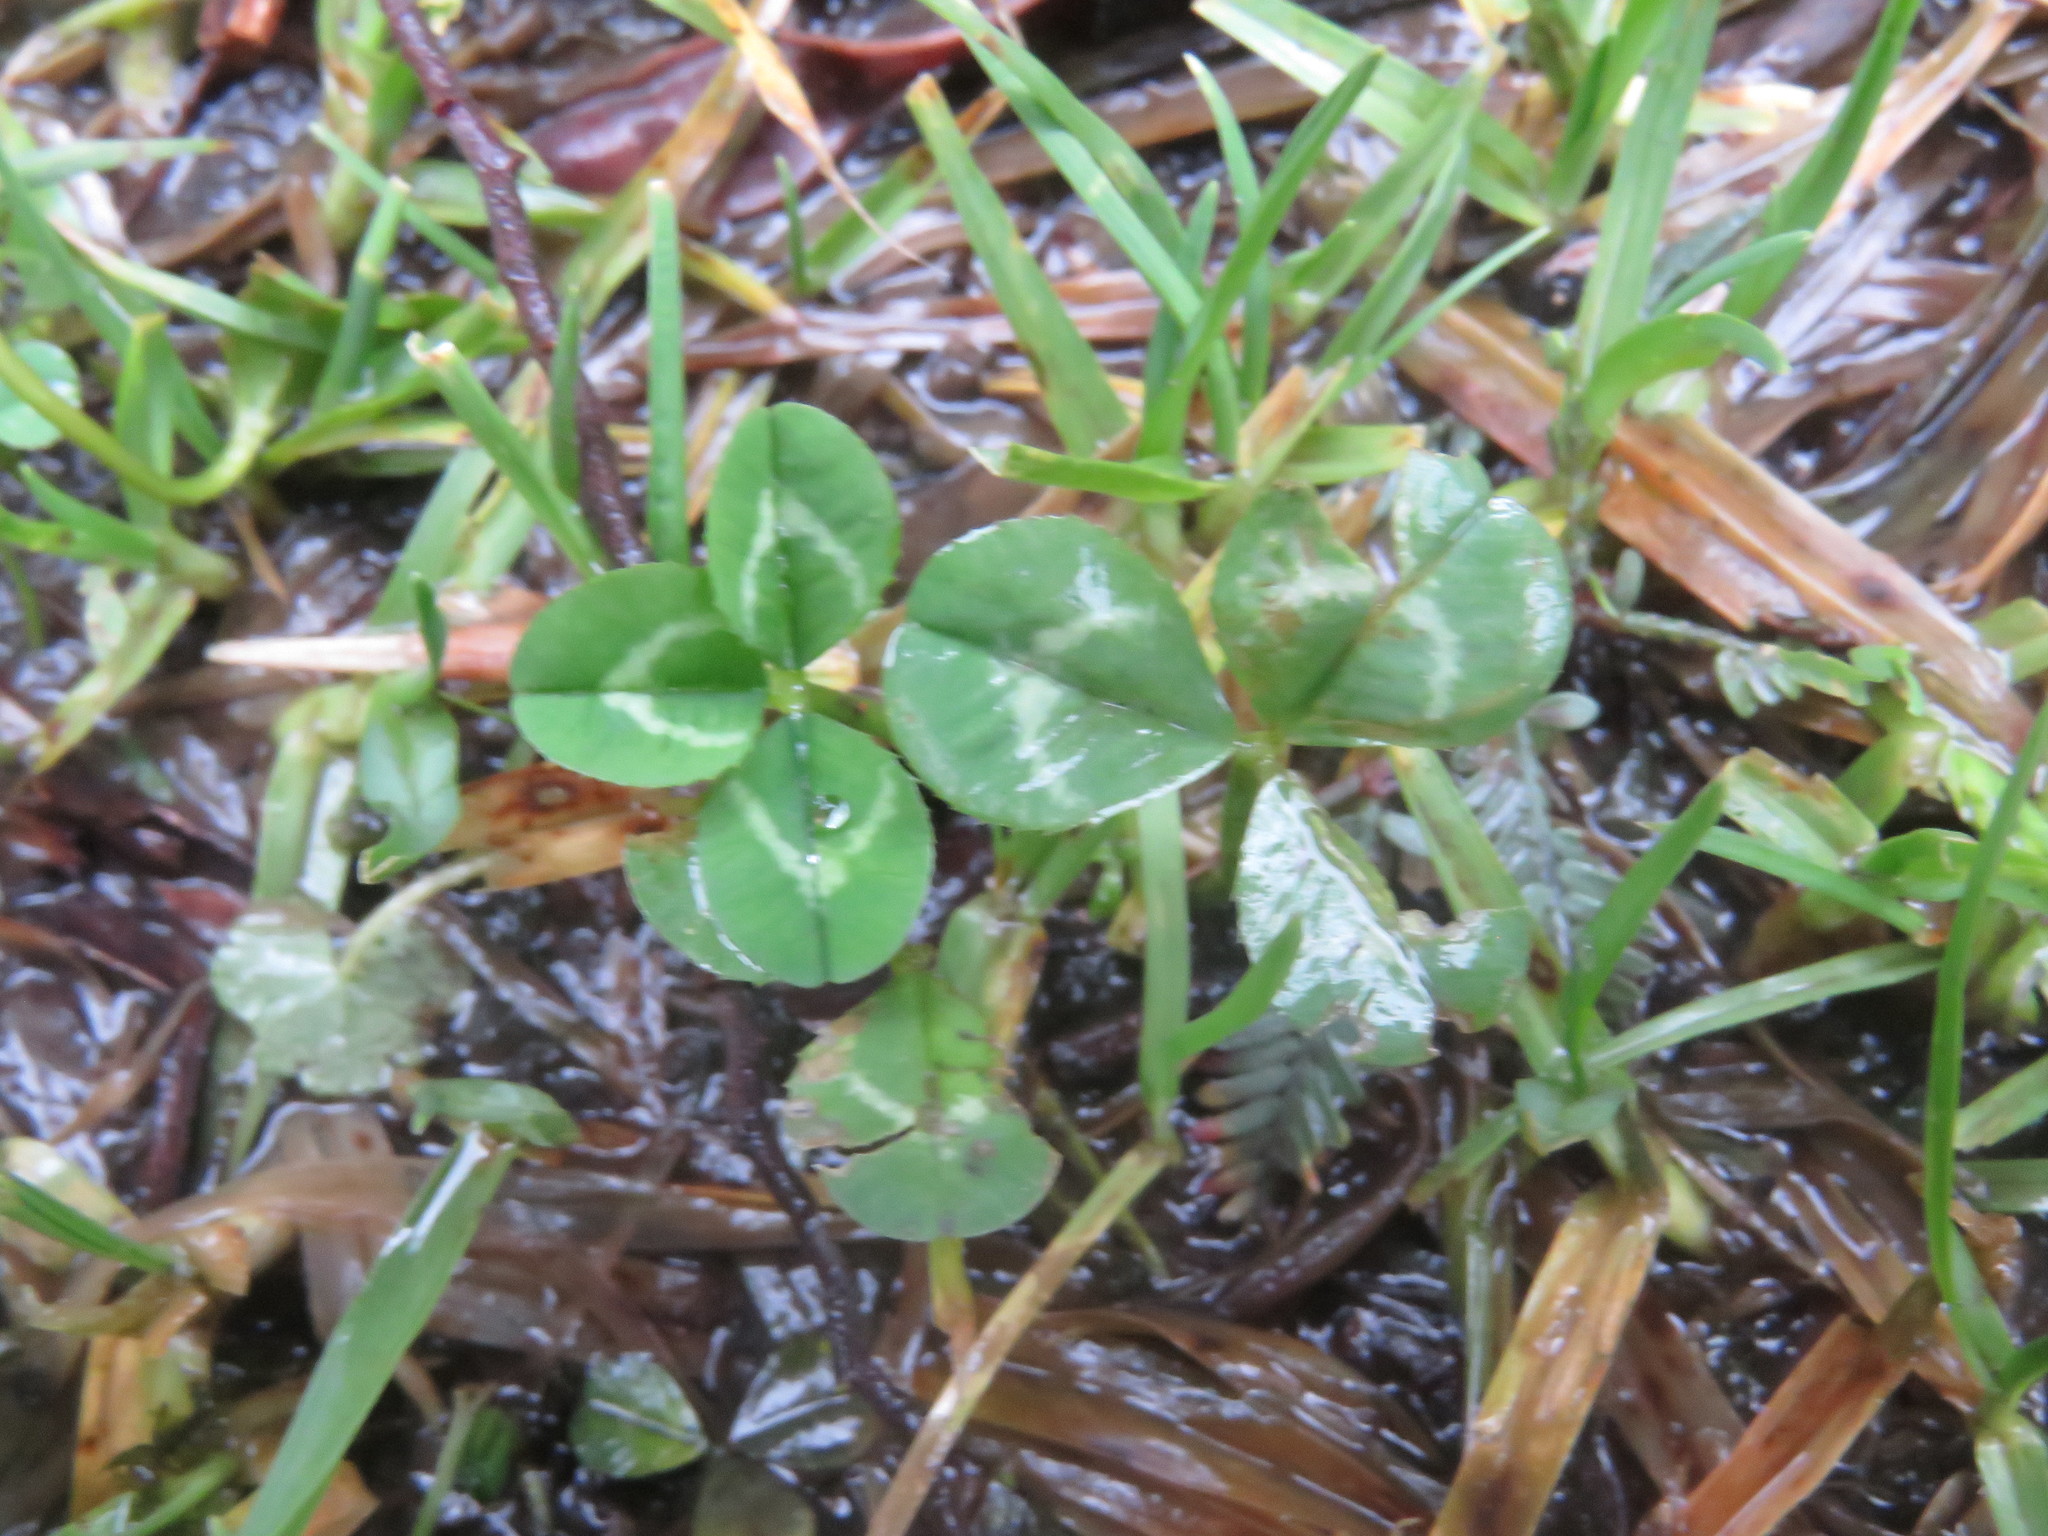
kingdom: Plantae
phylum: Tracheophyta
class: Magnoliopsida
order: Fabales
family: Fabaceae
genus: Trifolium
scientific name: Trifolium repens
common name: White clover
